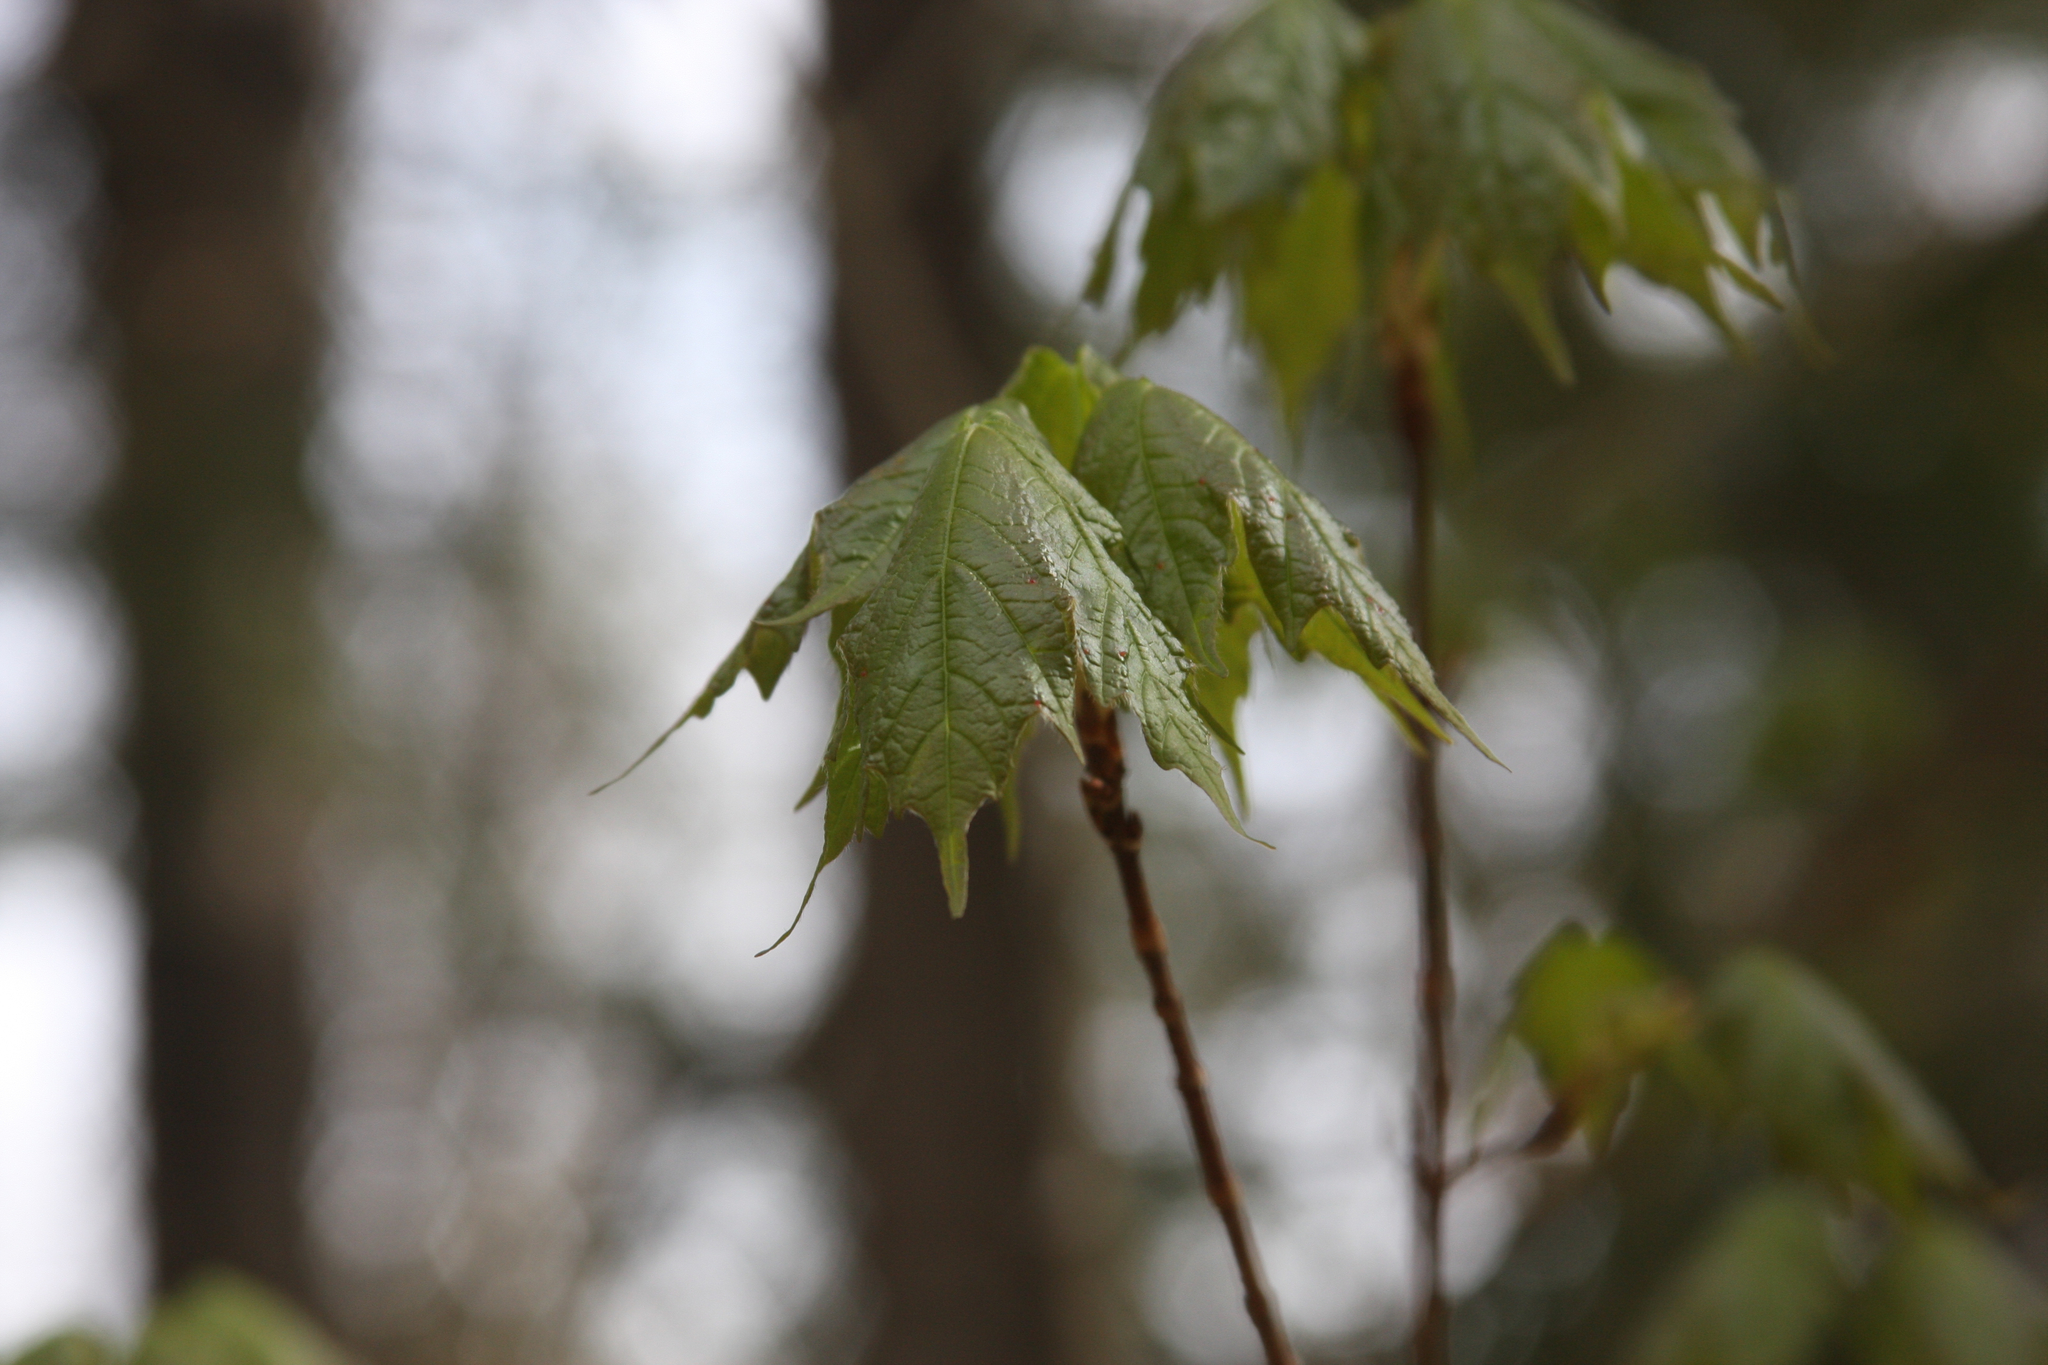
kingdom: Plantae
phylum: Tracheophyta
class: Magnoliopsida
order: Sapindales
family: Sapindaceae
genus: Acer
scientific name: Acer saccharum
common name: Sugar maple
